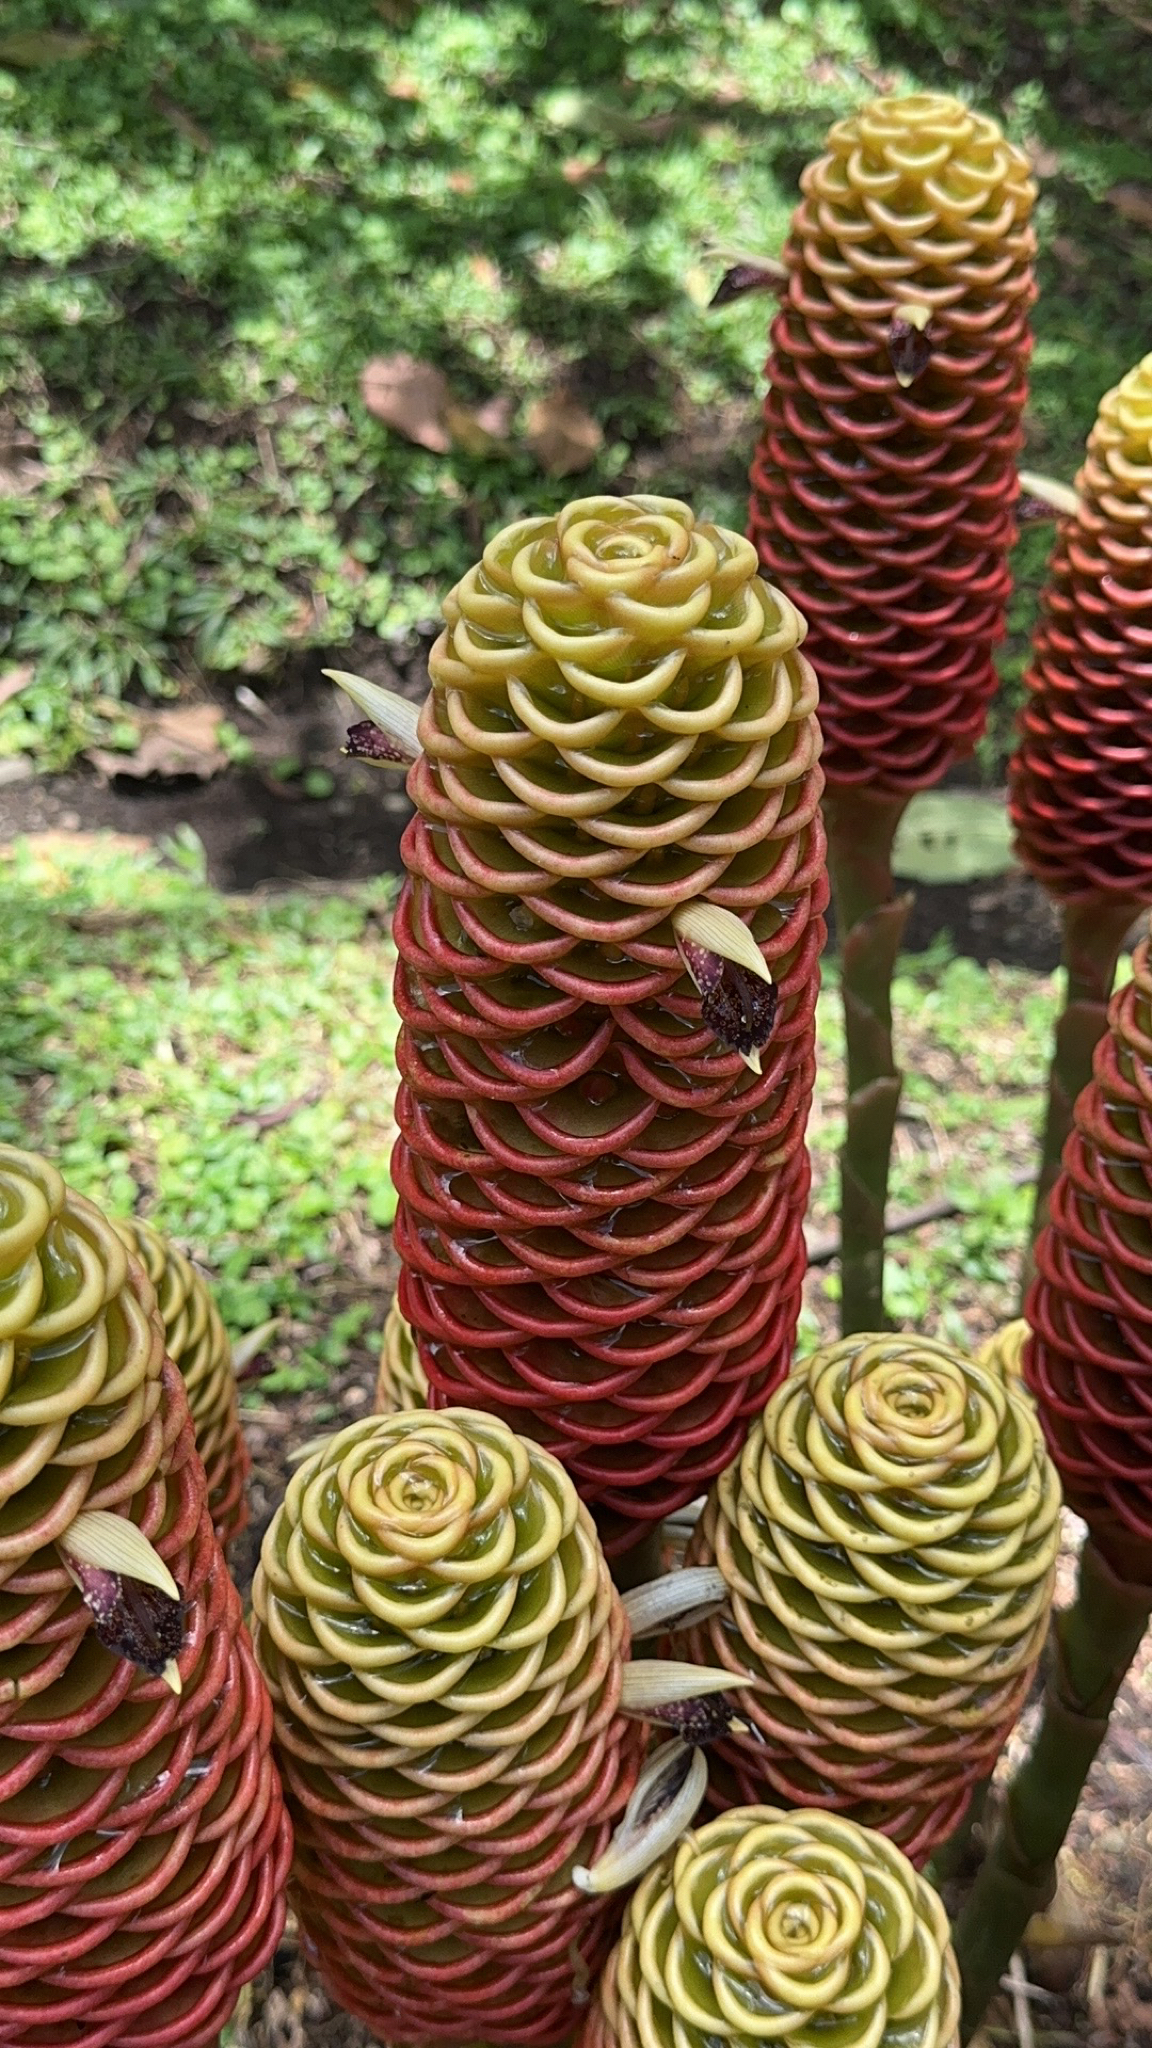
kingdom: Plantae
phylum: Tracheophyta
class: Liliopsida
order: Zingiberales
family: Zingiberaceae
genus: Zingiber
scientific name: Zingiber spectabile
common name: Beehive ginger
